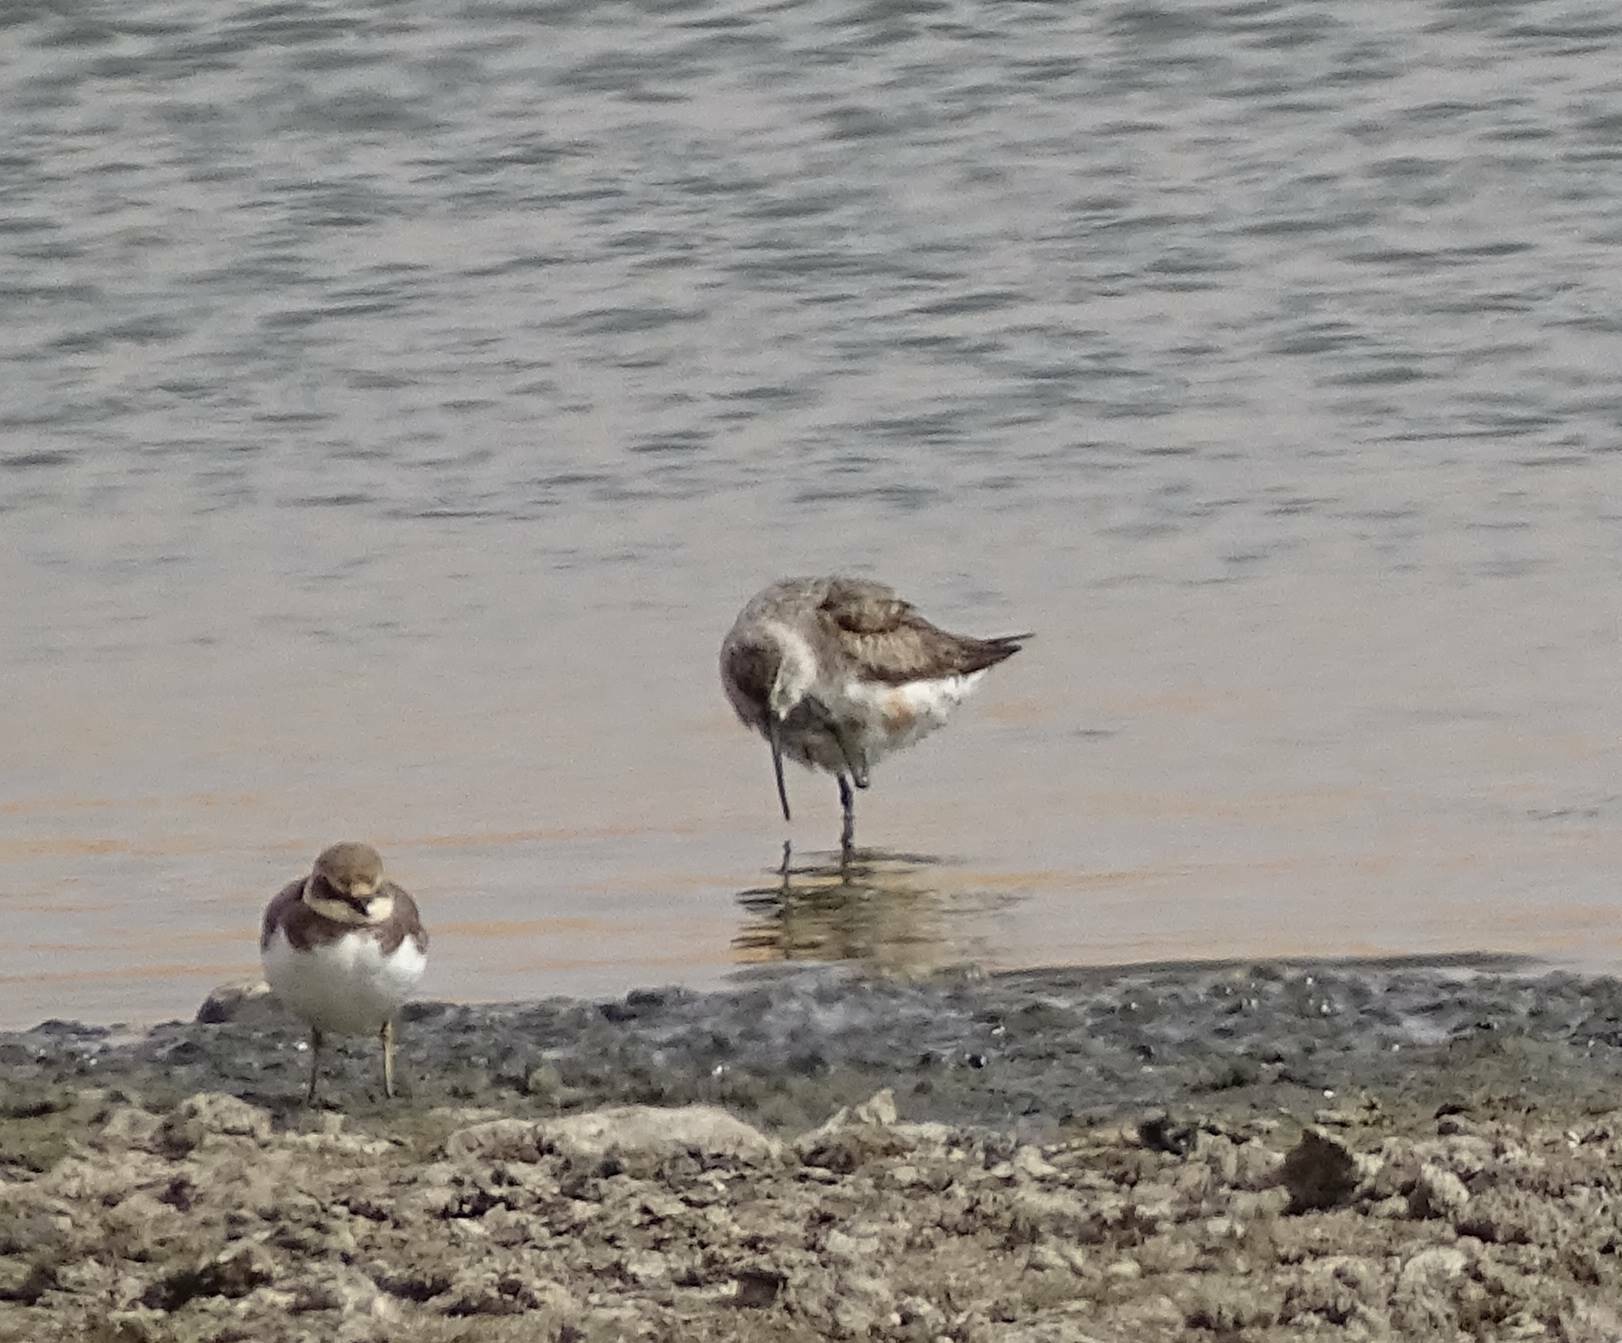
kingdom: Animalia
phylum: Chordata
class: Aves
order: Charadriiformes
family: Scolopacidae
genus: Calidris
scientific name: Calidris ferruginea
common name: Curlew sandpiper
